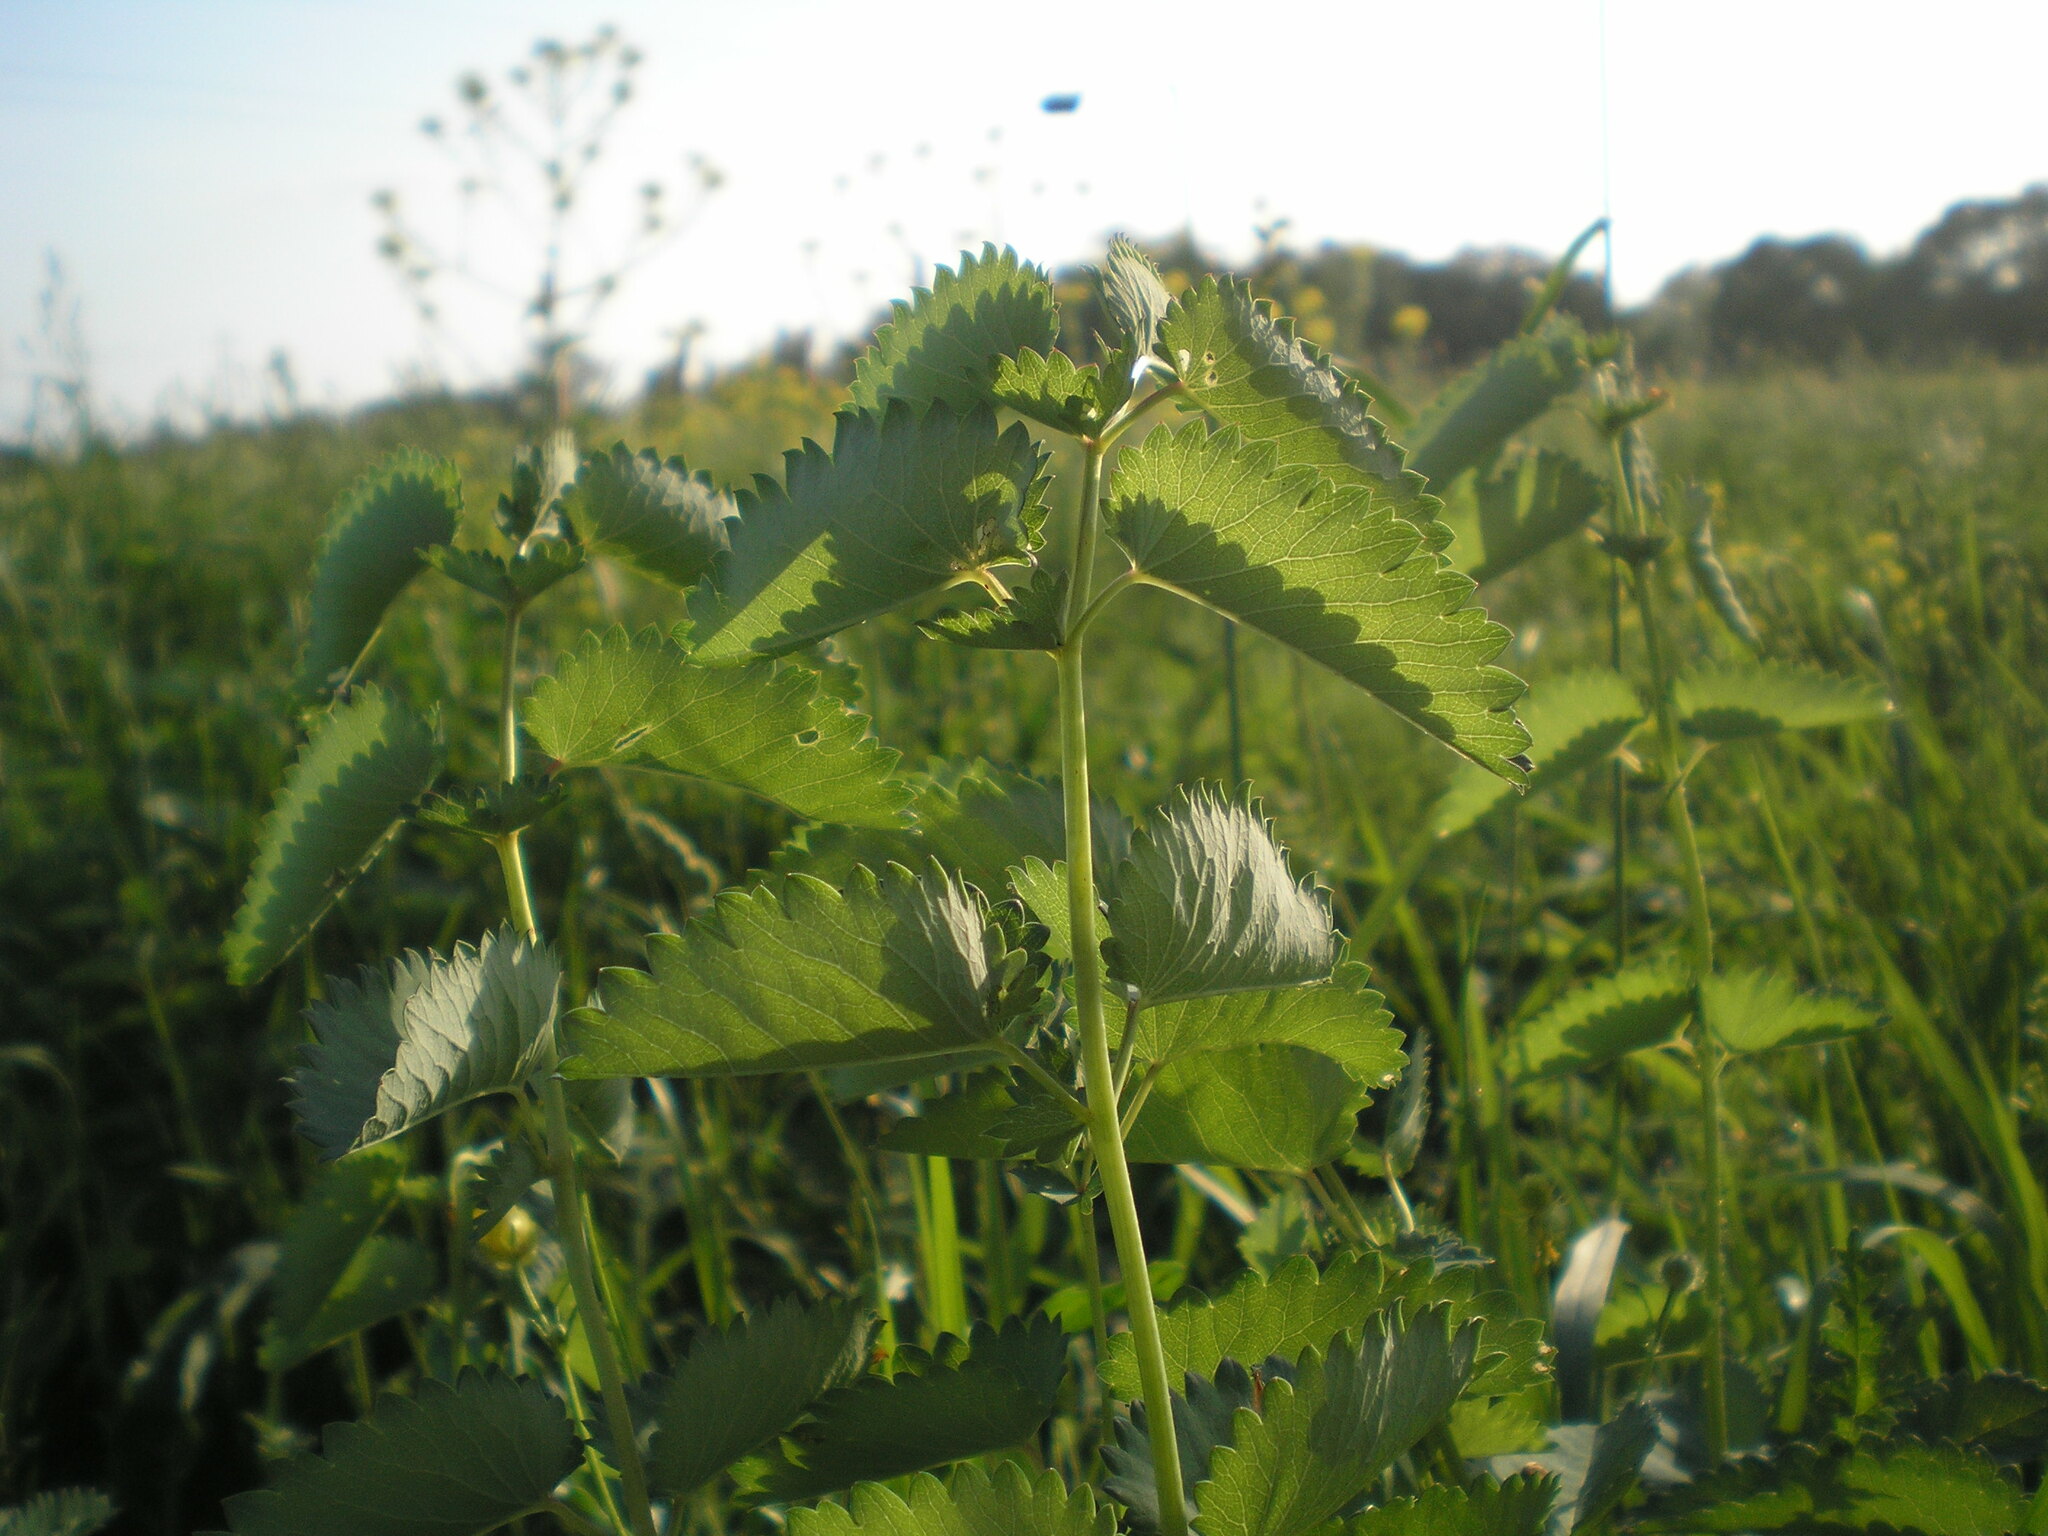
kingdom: Plantae
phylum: Tracheophyta
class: Magnoliopsida
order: Rosales
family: Rosaceae
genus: Sanguisorba
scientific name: Sanguisorba officinalis
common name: Great burnet
